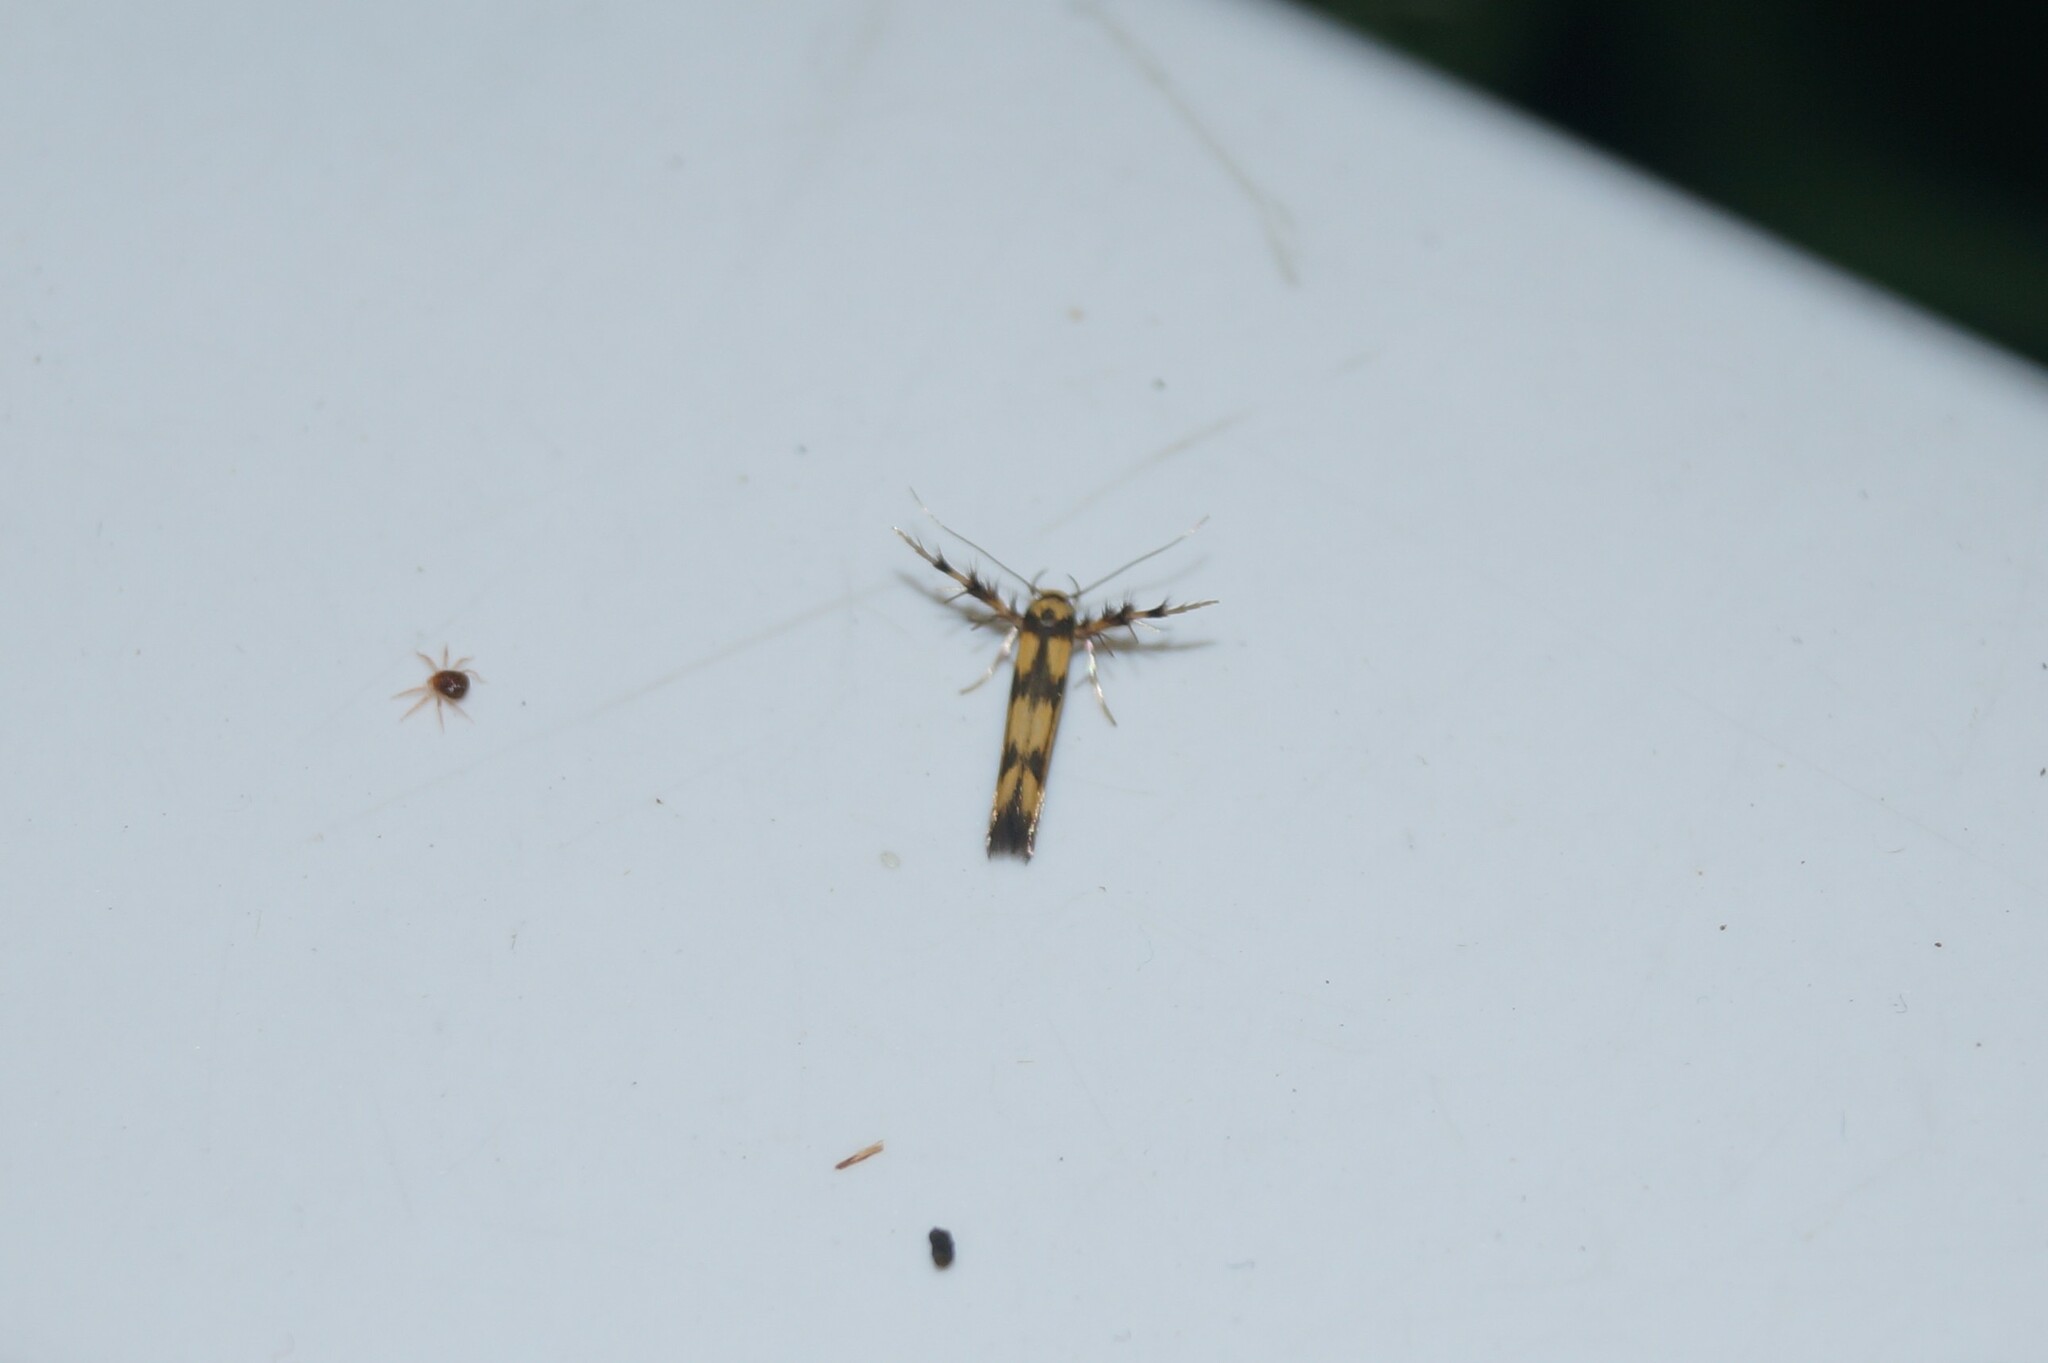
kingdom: Animalia
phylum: Arthropoda
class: Insecta
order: Lepidoptera
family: Stathmopodidae
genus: Stathmopoda
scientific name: Stathmopoda pedella
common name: Alder signal
